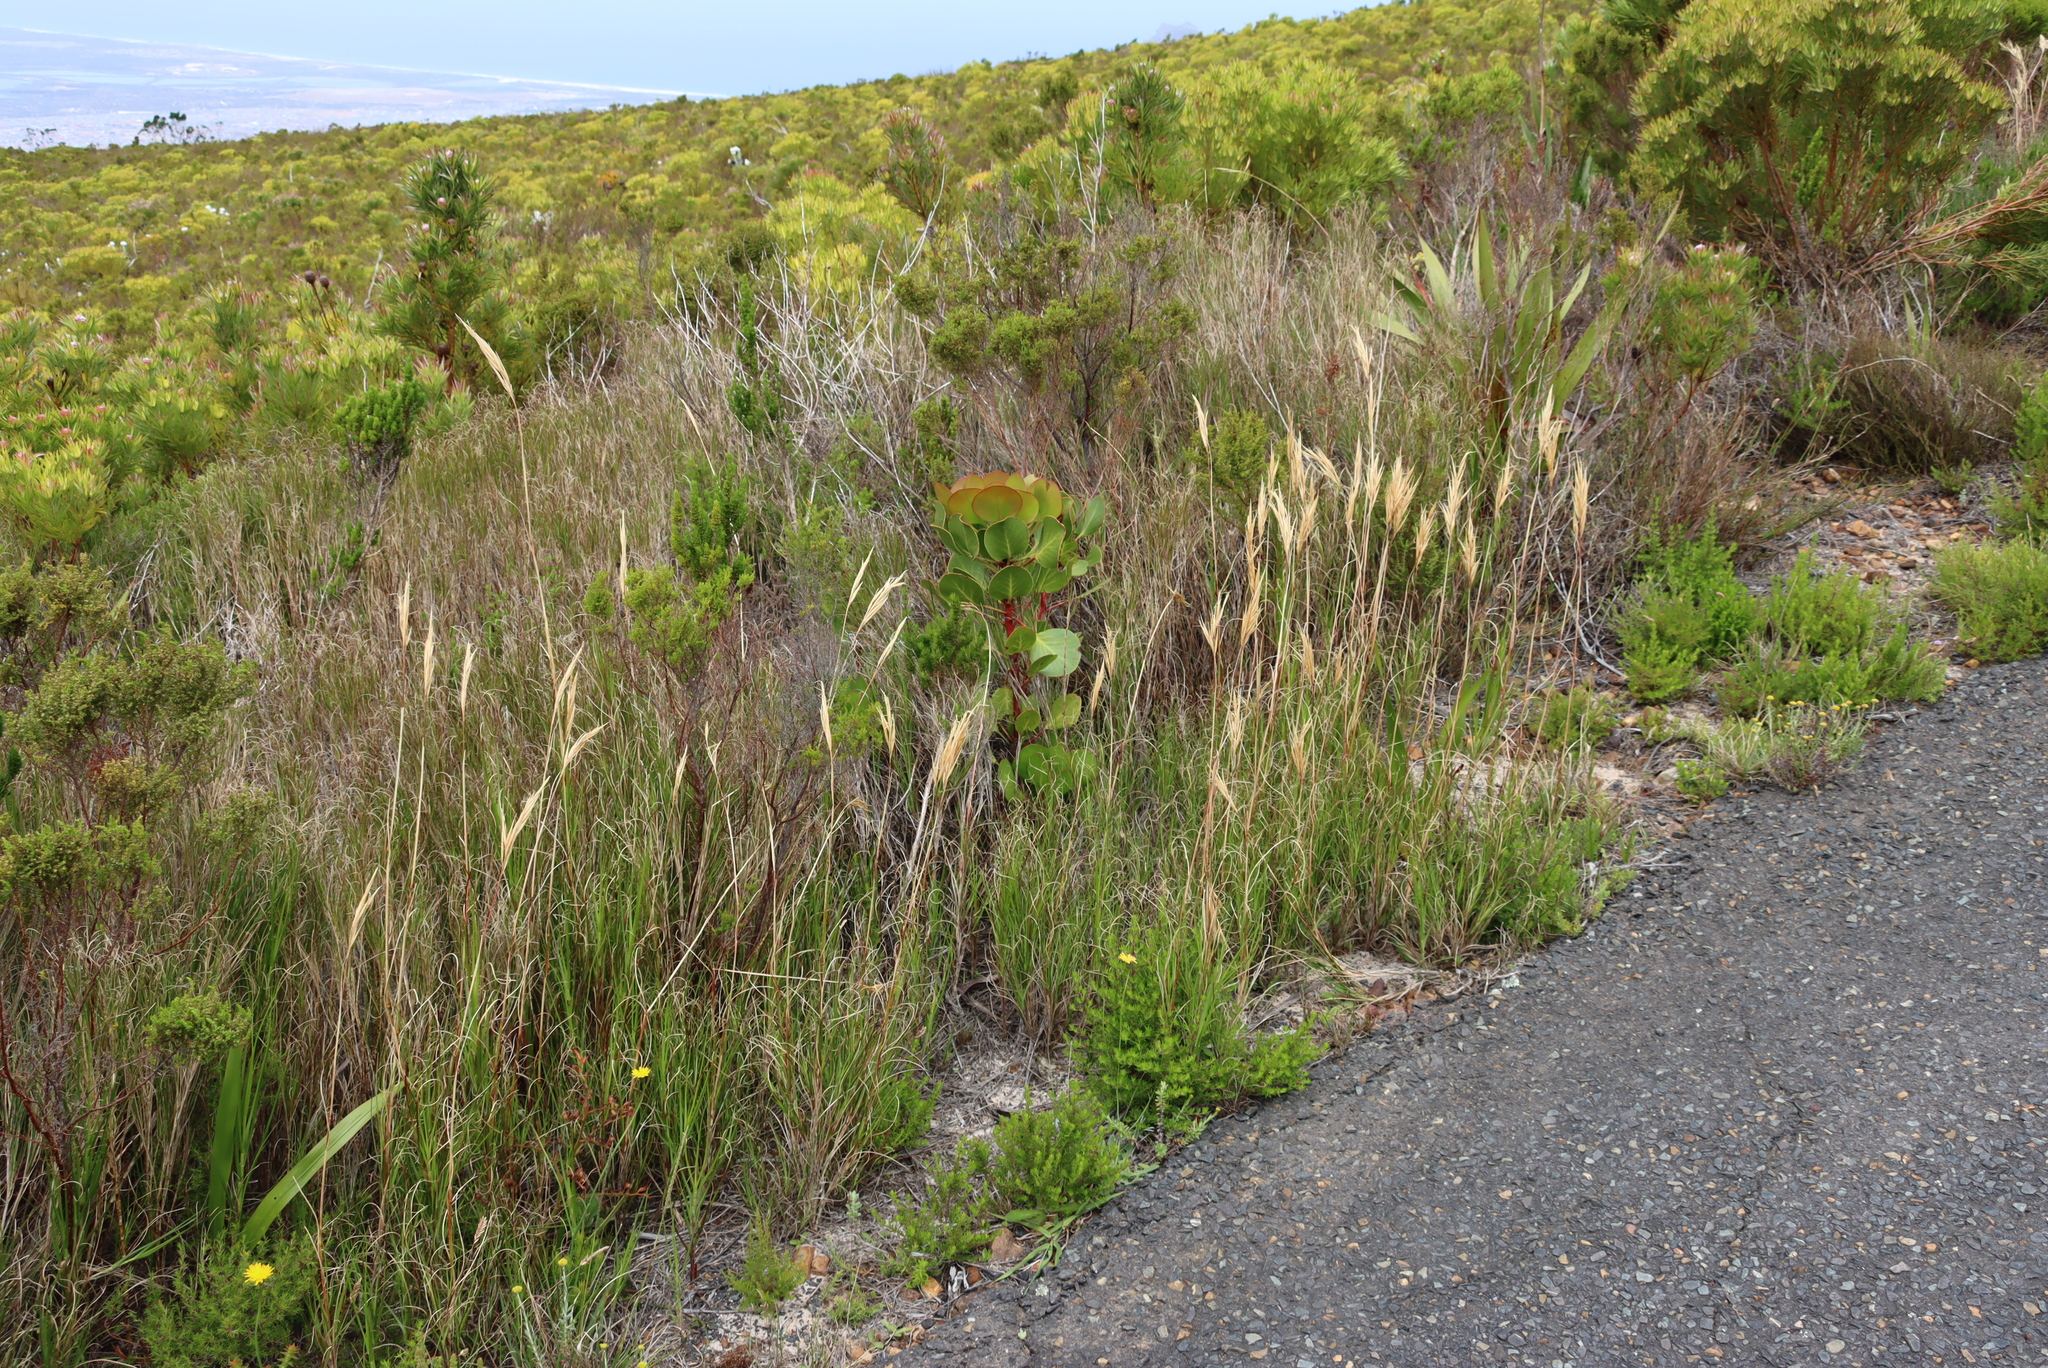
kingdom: Plantae
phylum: Tracheophyta
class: Magnoliopsida
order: Proteales
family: Proteaceae
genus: Protea
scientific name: Protea cynaroides
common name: King protea
